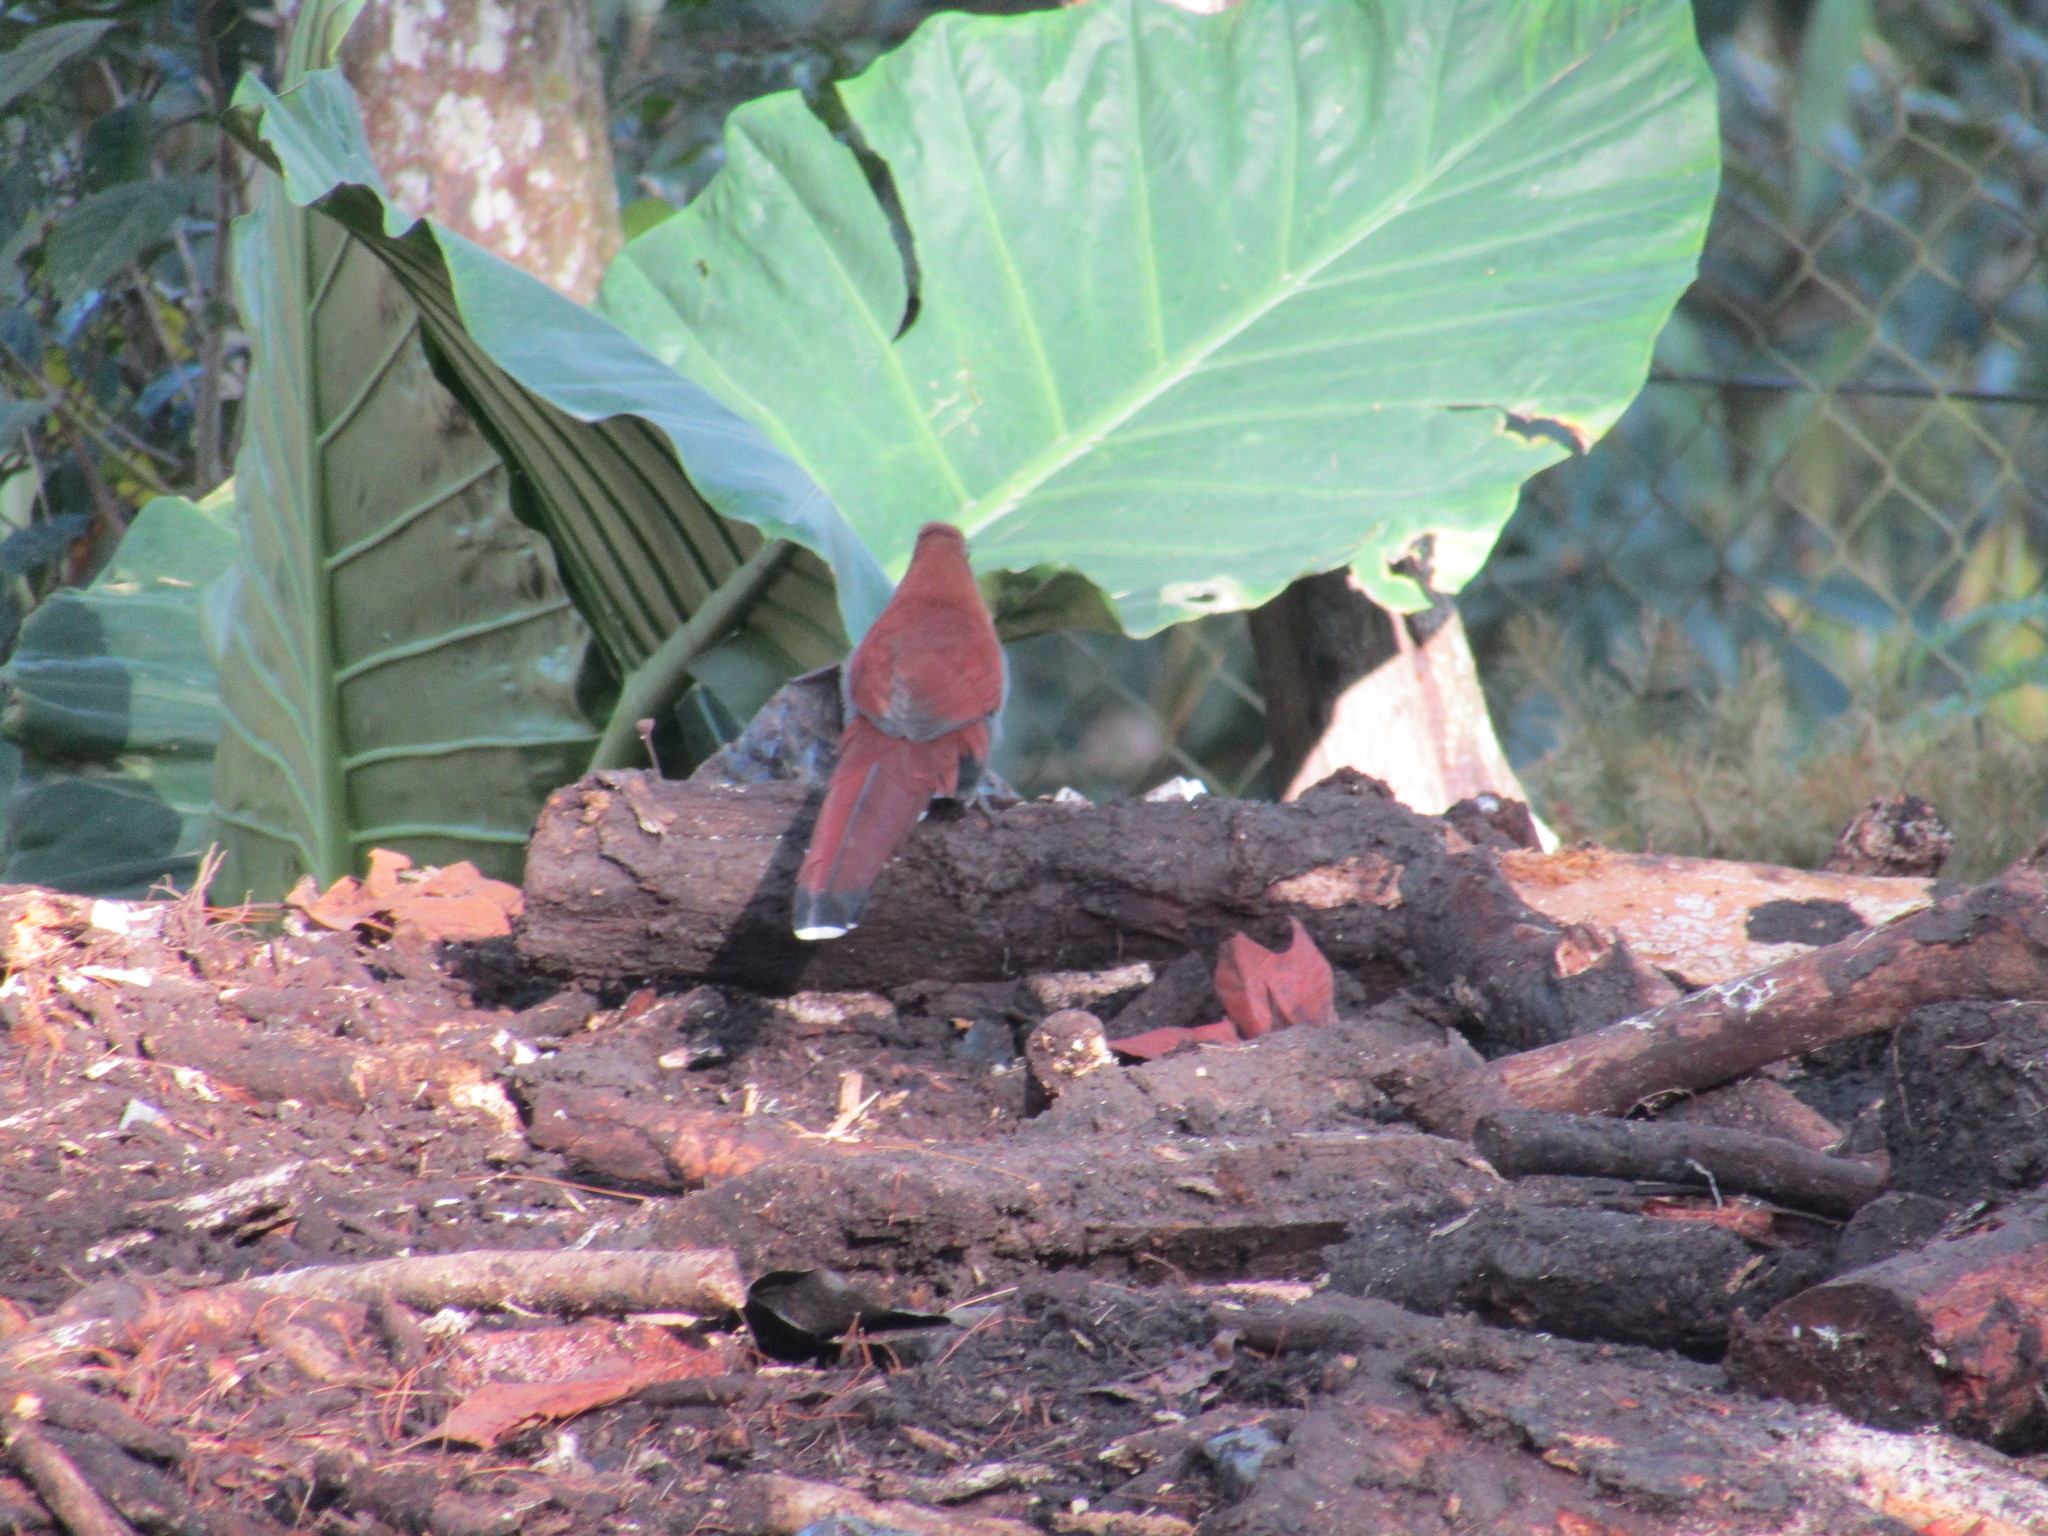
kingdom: Animalia
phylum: Chordata
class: Aves
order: Cuculiformes
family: Cuculidae
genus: Piaya
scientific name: Piaya cayana
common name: Squirrel cuckoo
